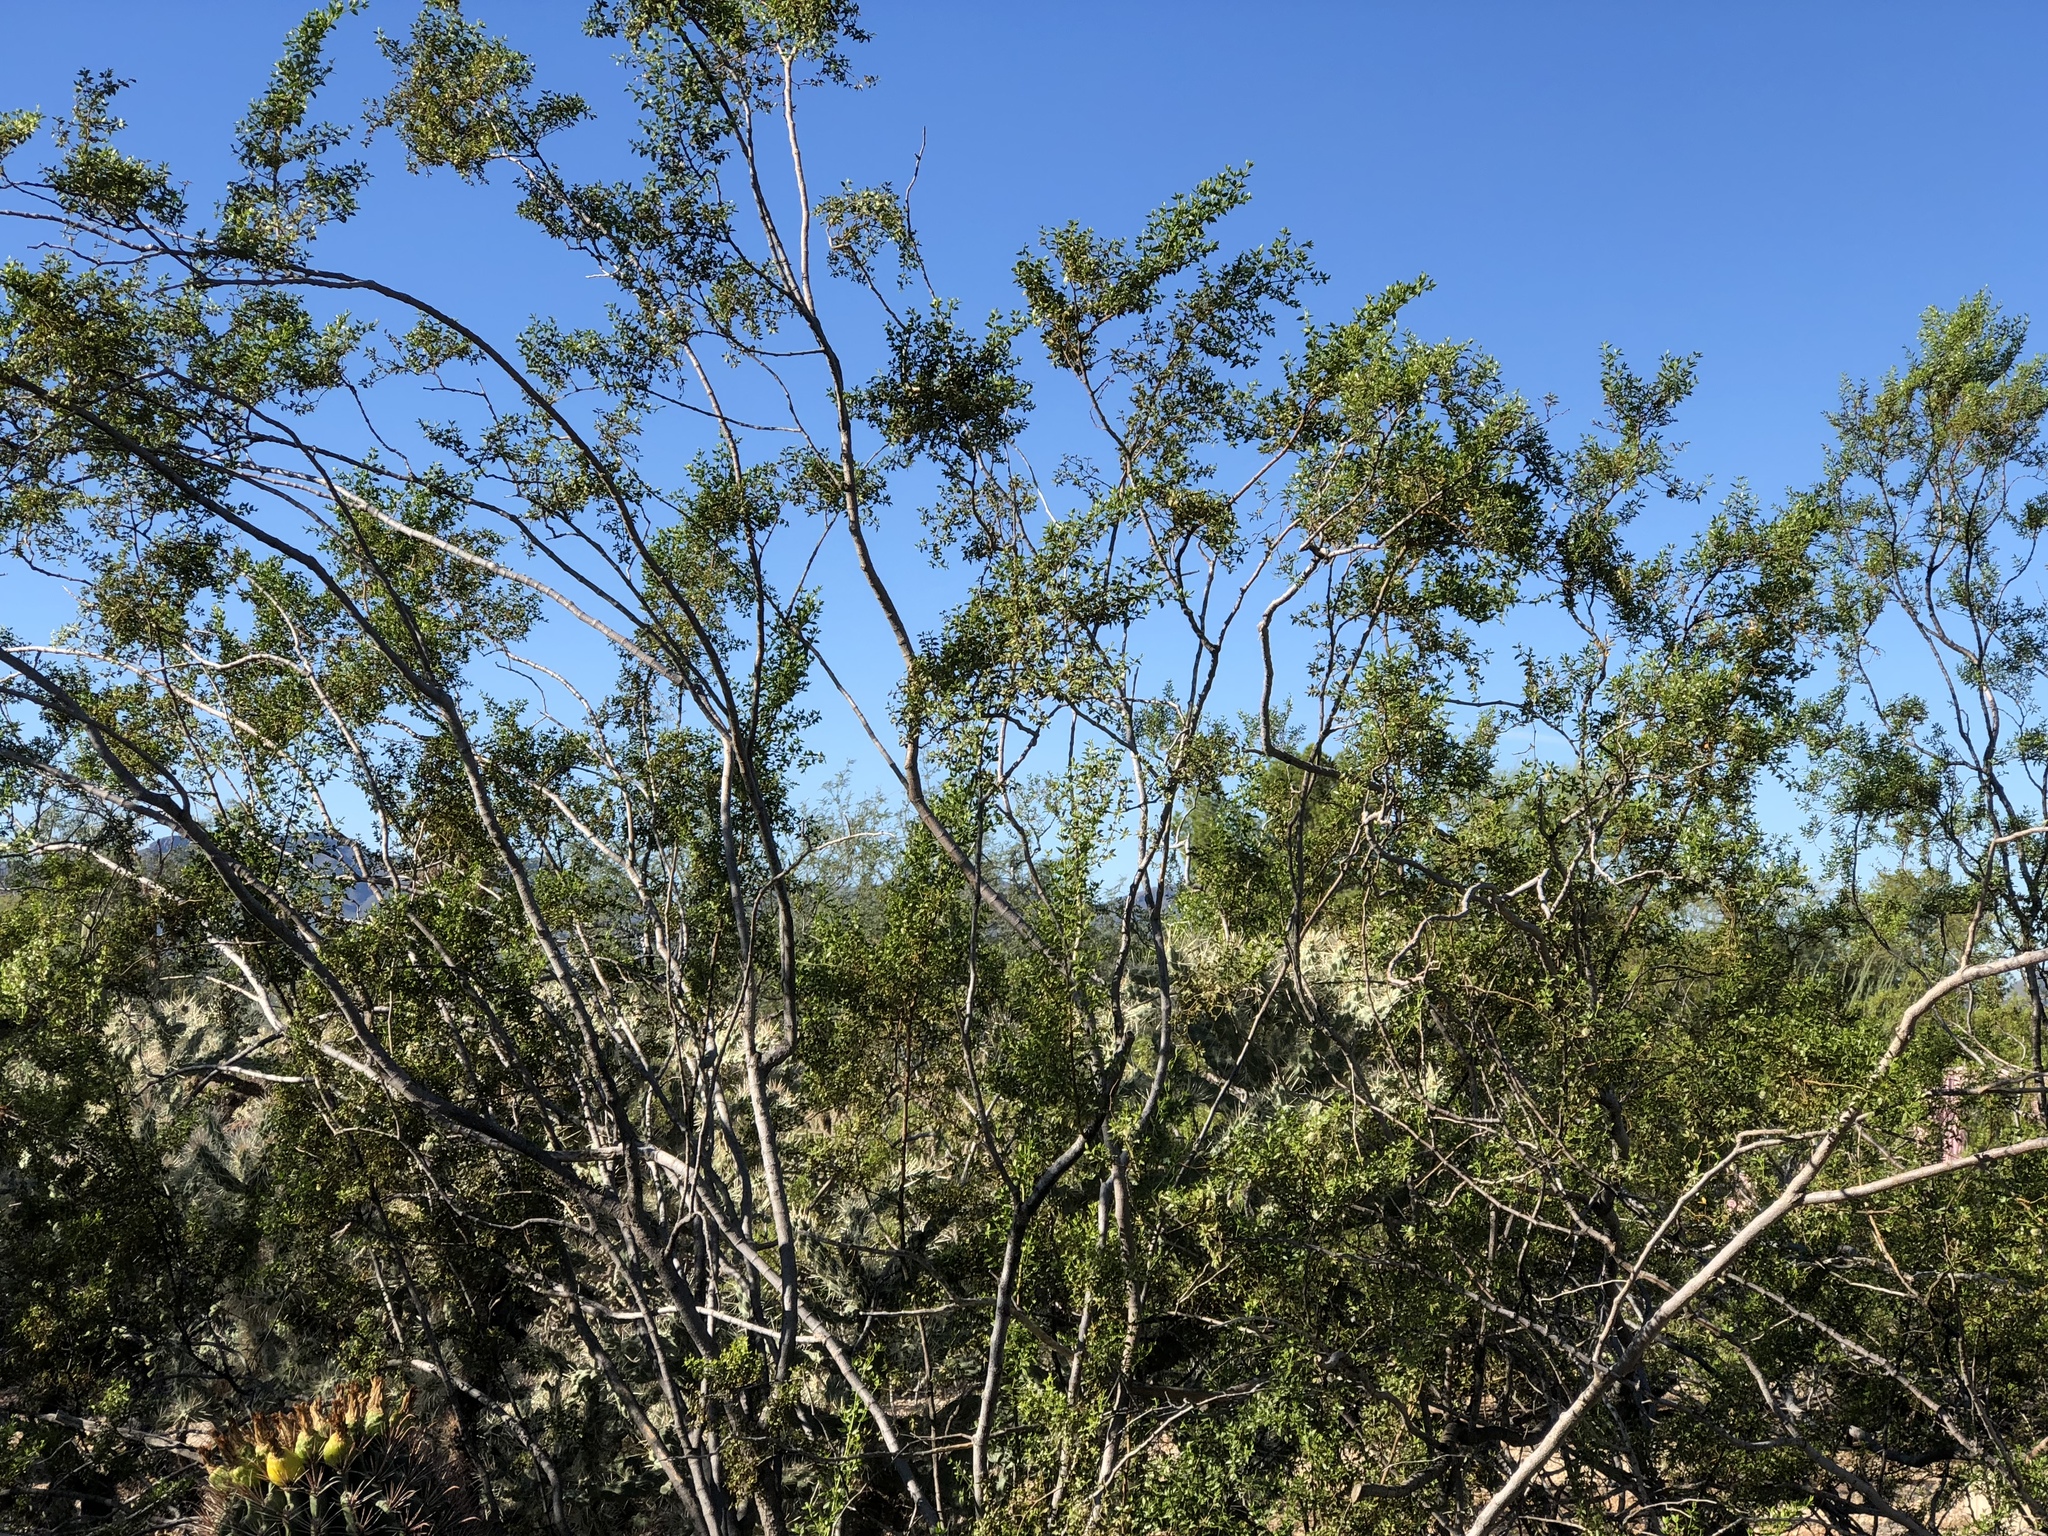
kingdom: Plantae
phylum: Tracheophyta
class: Magnoliopsida
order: Zygophyllales
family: Zygophyllaceae
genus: Larrea
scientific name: Larrea tridentata
